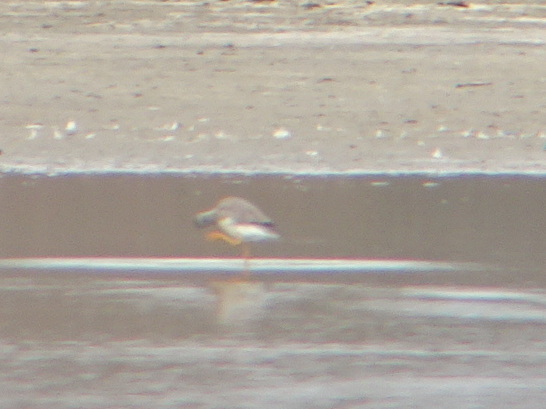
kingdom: Animalia
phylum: Chordata
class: Aves
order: Charadriiformes
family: Scolopacidae
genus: Tringa
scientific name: Tringa melanoleuca
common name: Greater yellowlegs
